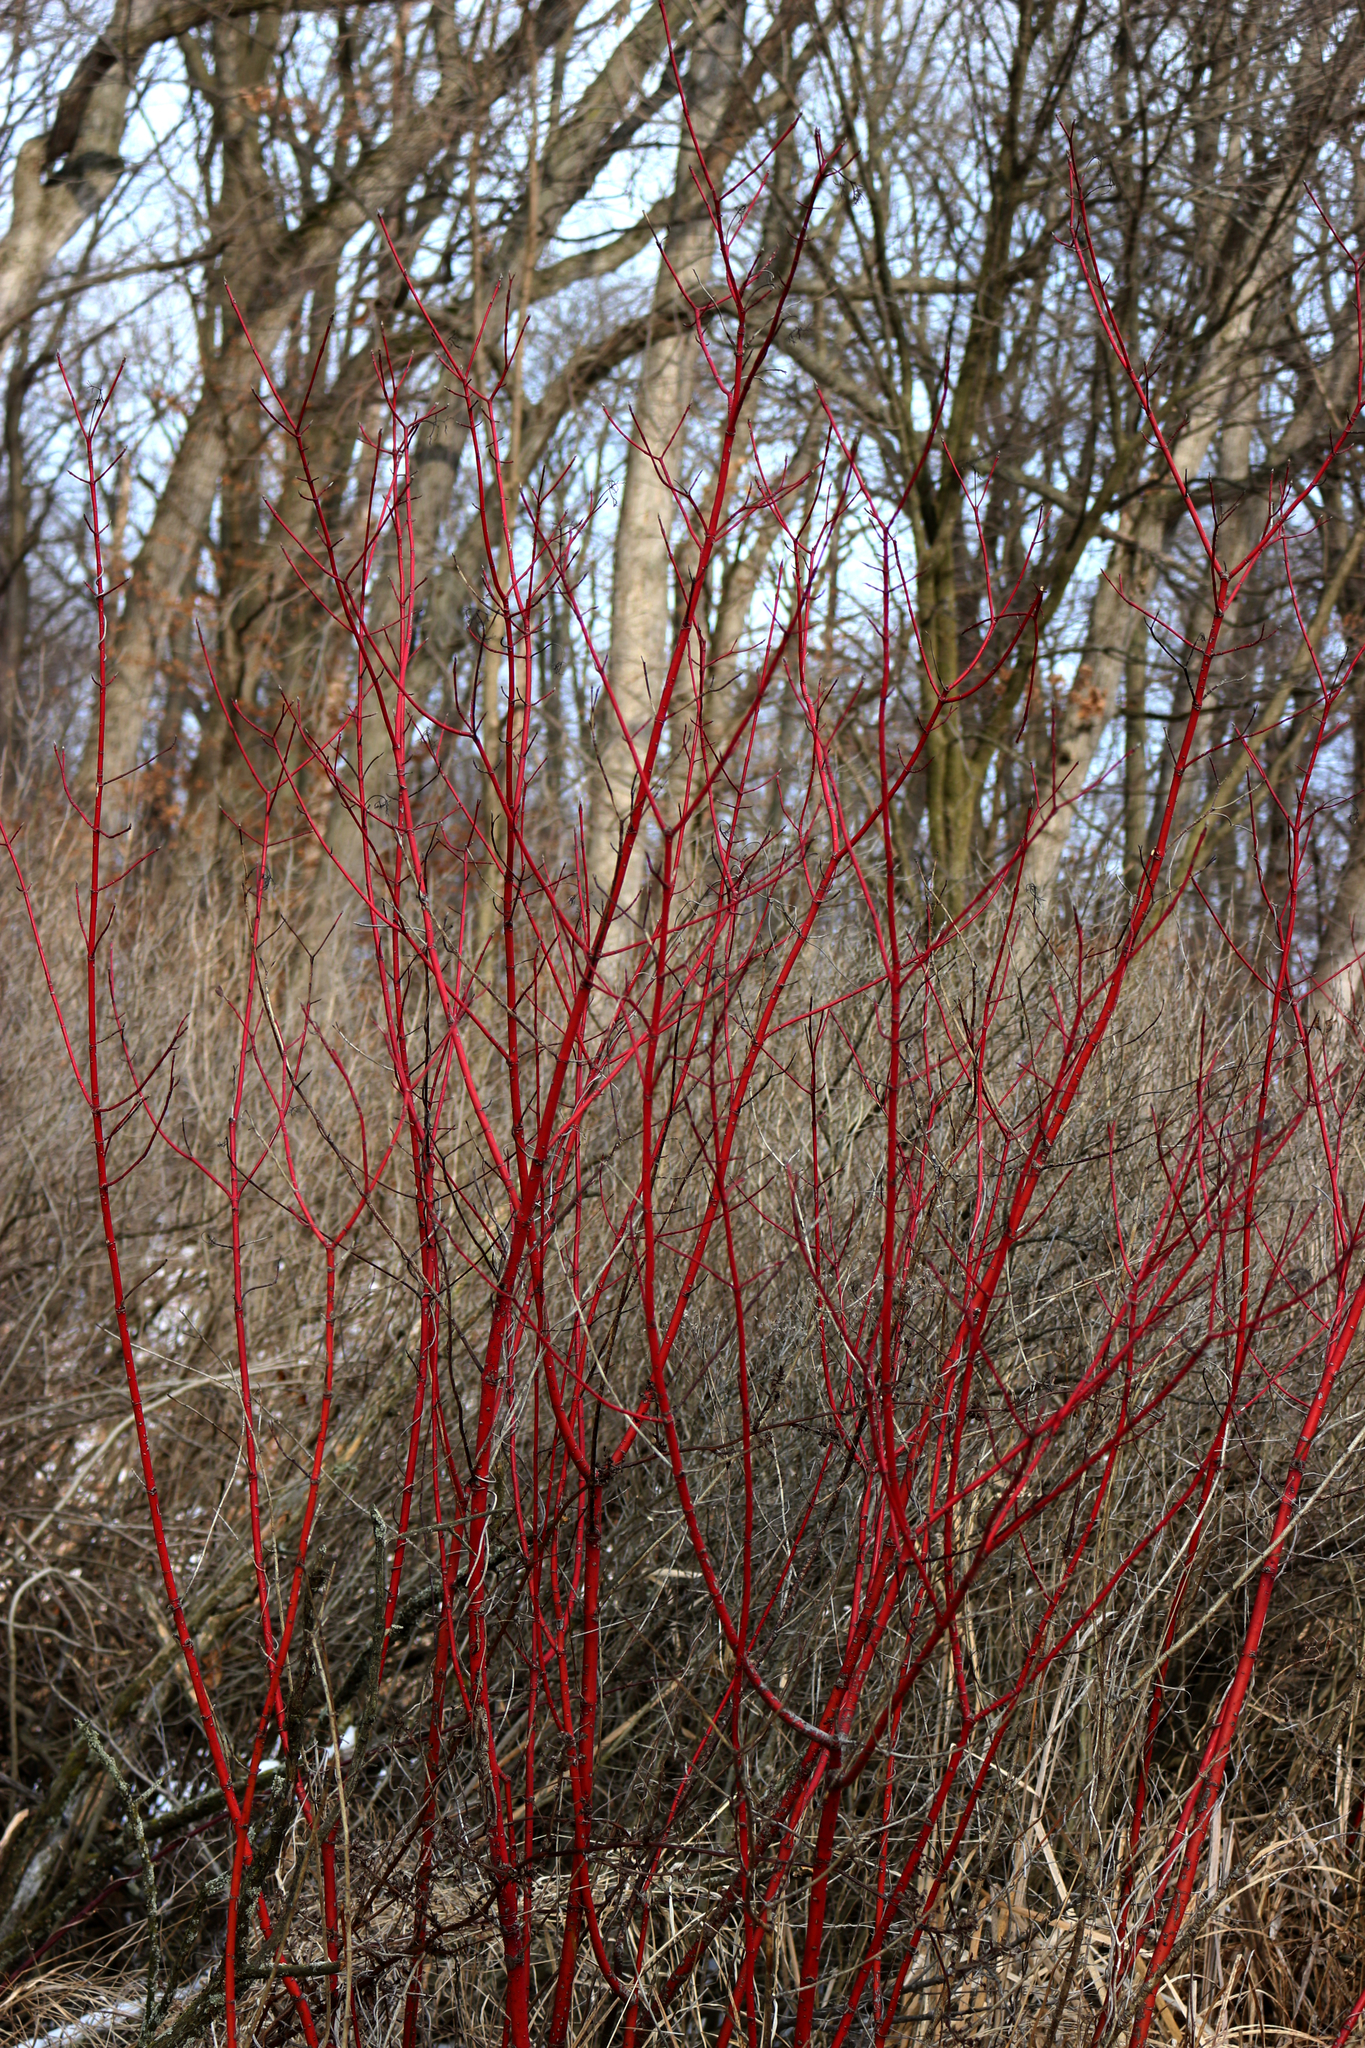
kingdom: Plantae
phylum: Tracheophyta
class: Magnoliopsida
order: Cornales
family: Cornaceae
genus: Cornus
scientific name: Cornus sericea
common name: Red-osier dogwood
